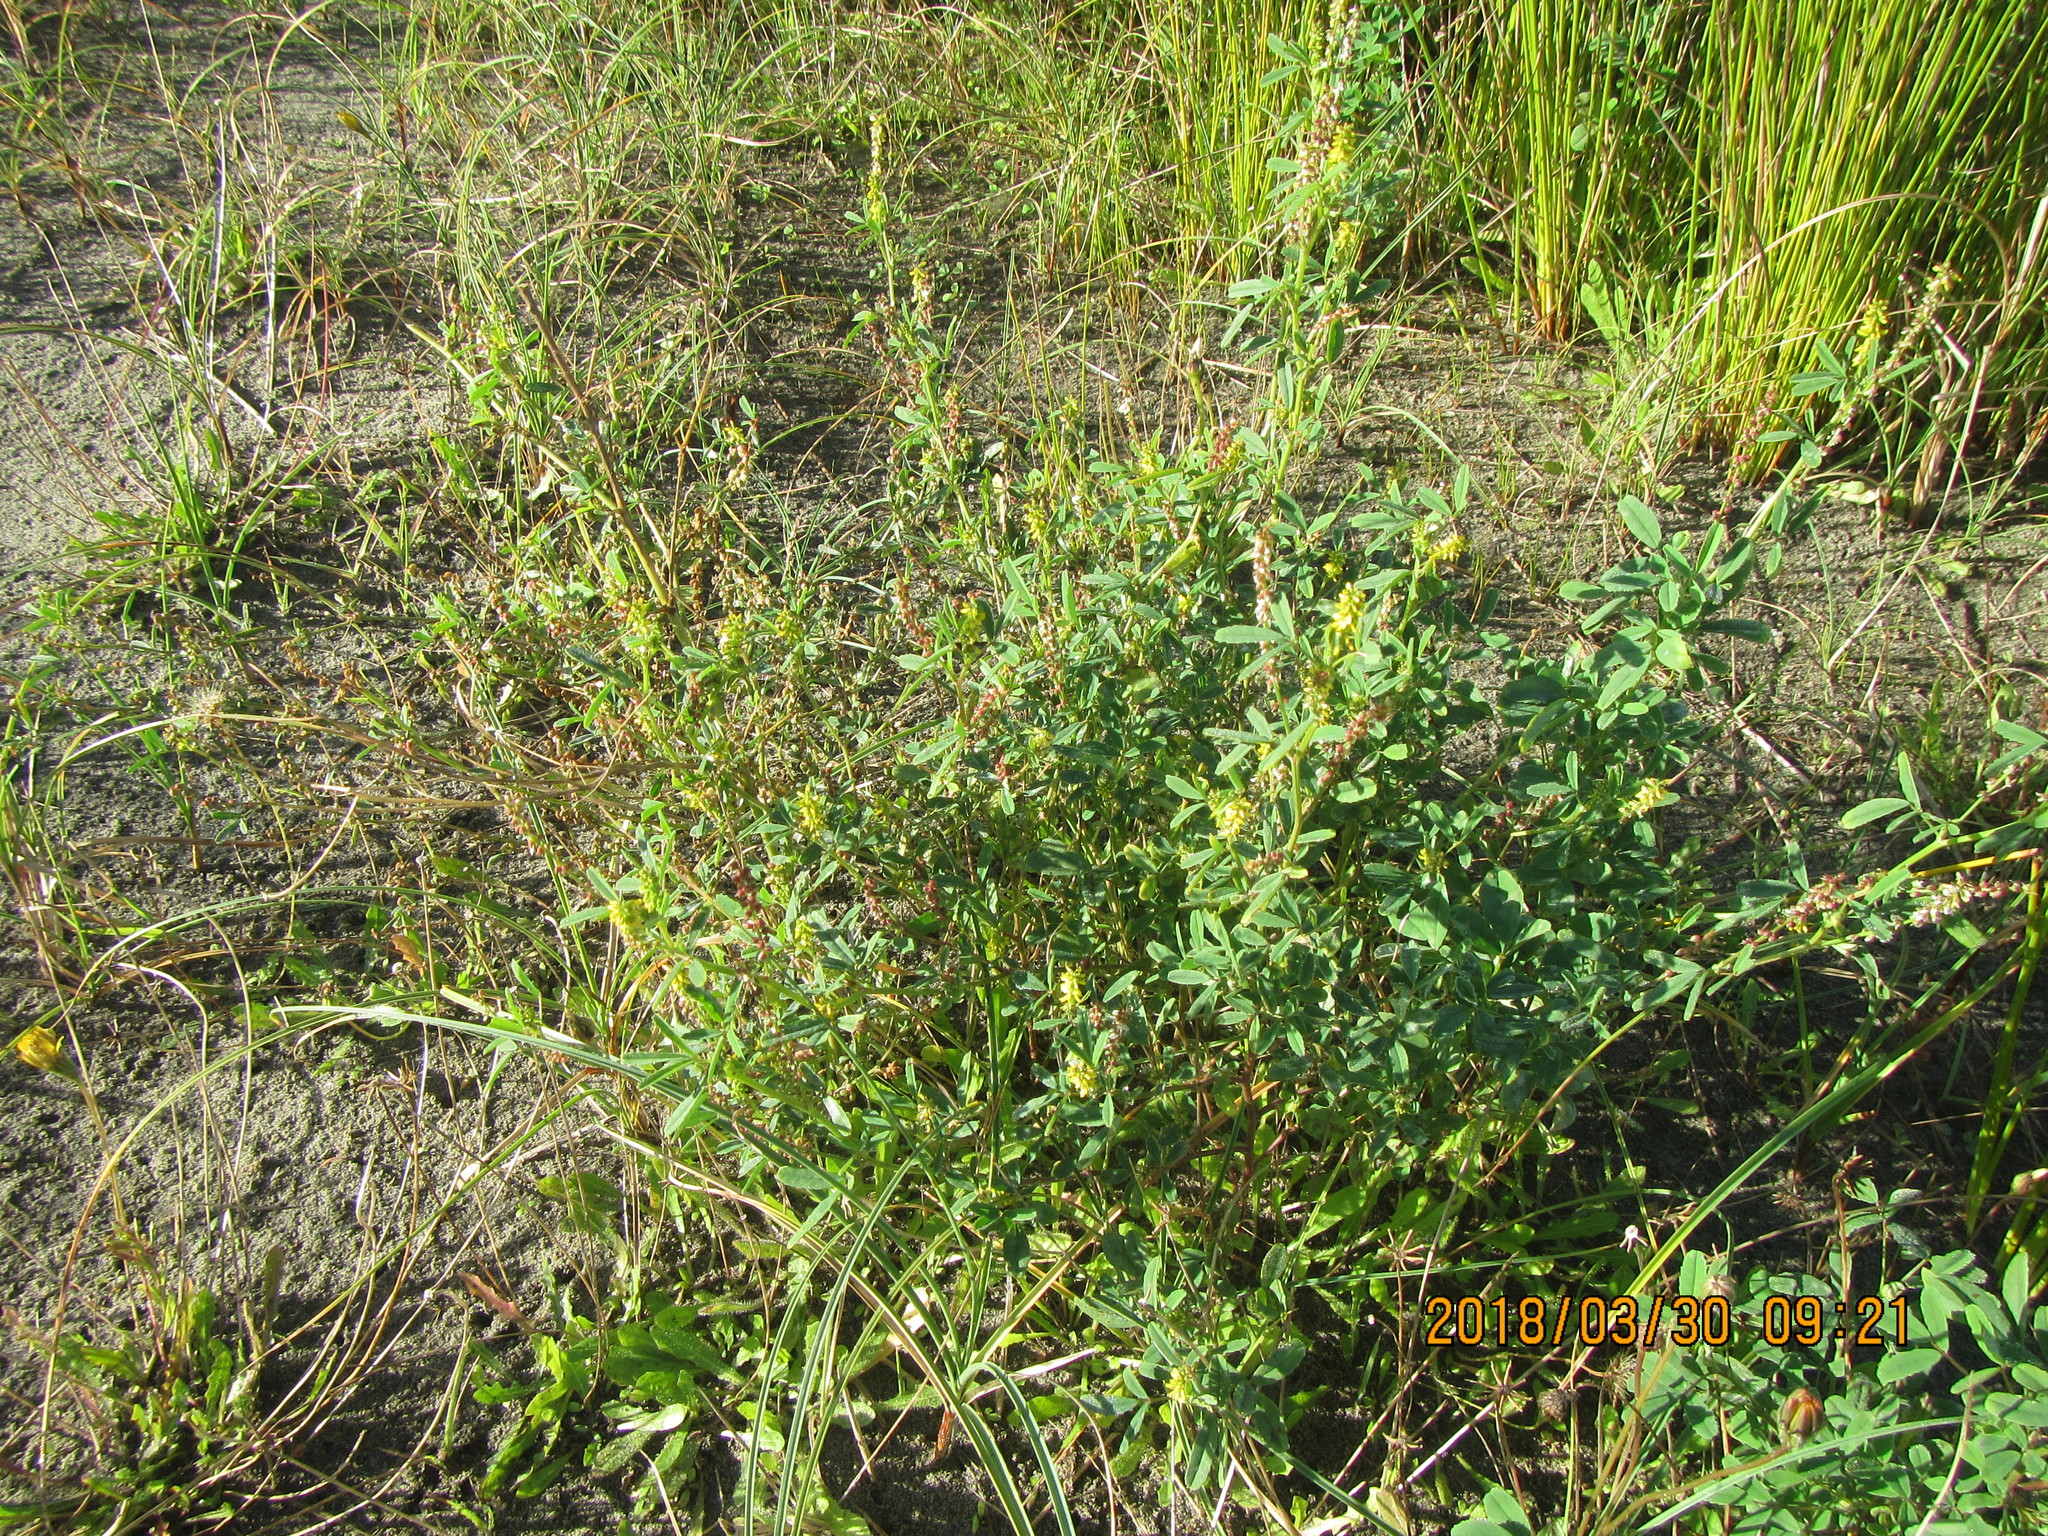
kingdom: Plantae
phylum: Tracheophyta
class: Magnoliopsida
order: Fabales
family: Fabaceae
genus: Melilotus
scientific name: Melilotus indicus
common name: Small melilot
